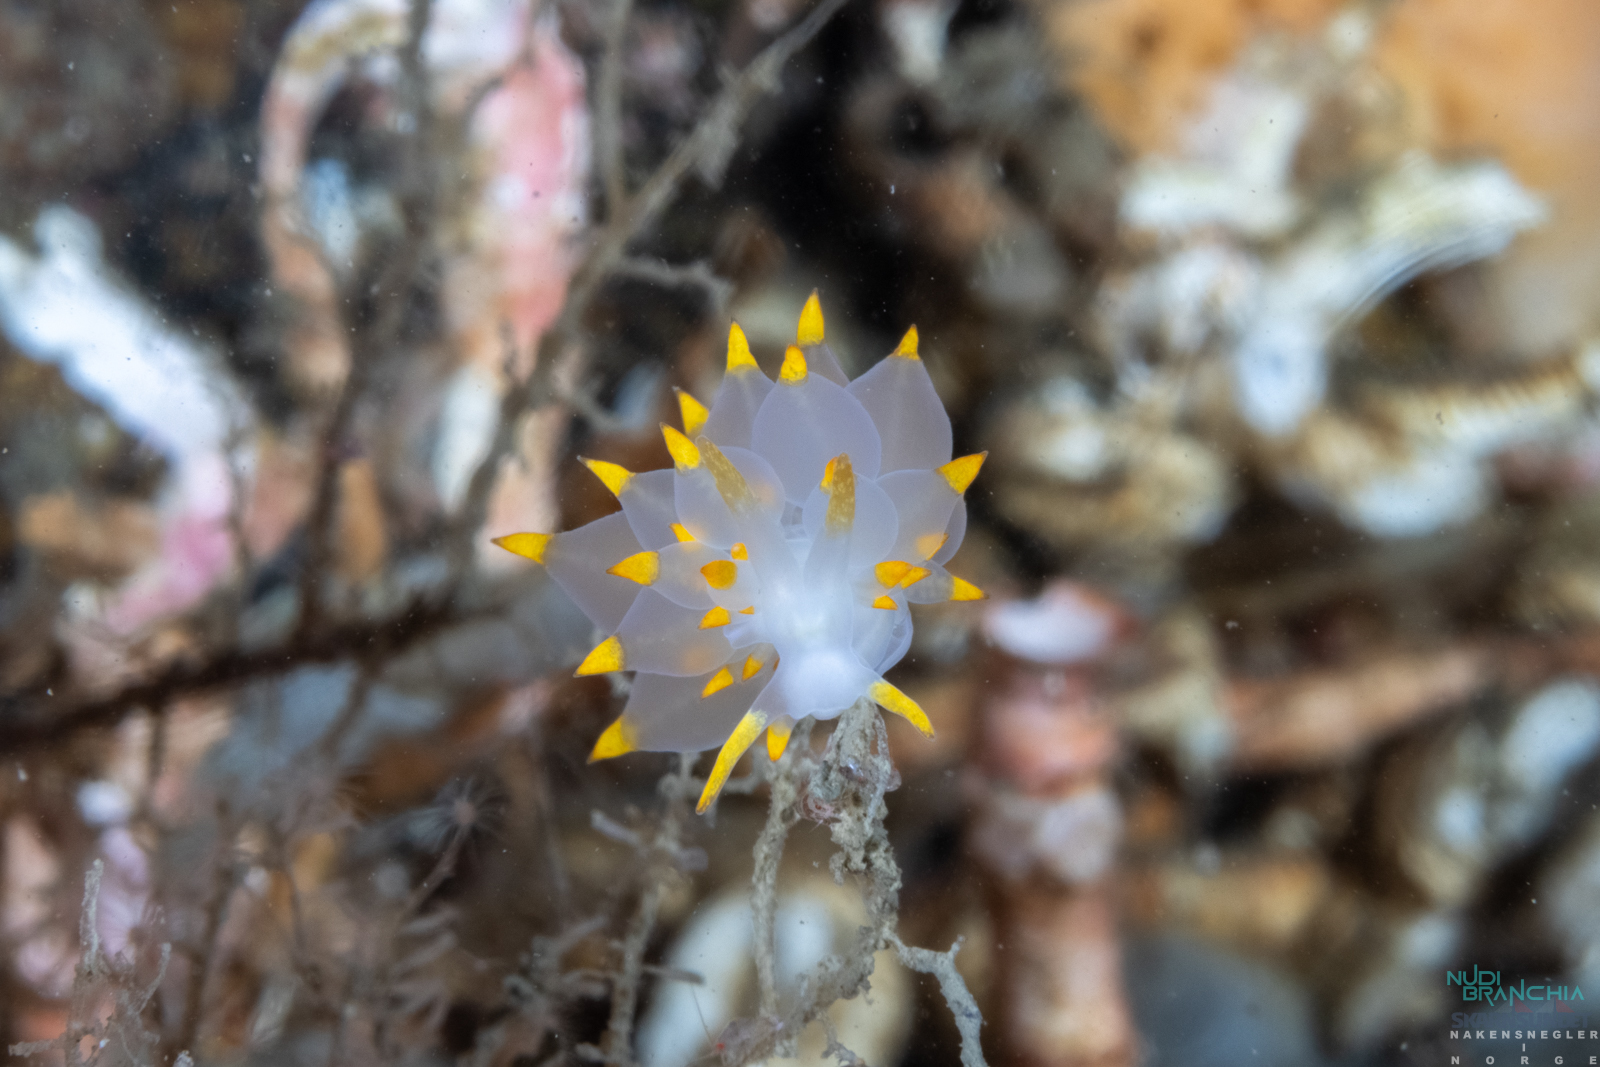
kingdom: Animalia
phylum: Mollusca
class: Gastropoda
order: Nudibranchia
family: Eubranchidae
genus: Amphorina
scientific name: Amphorina farrani
